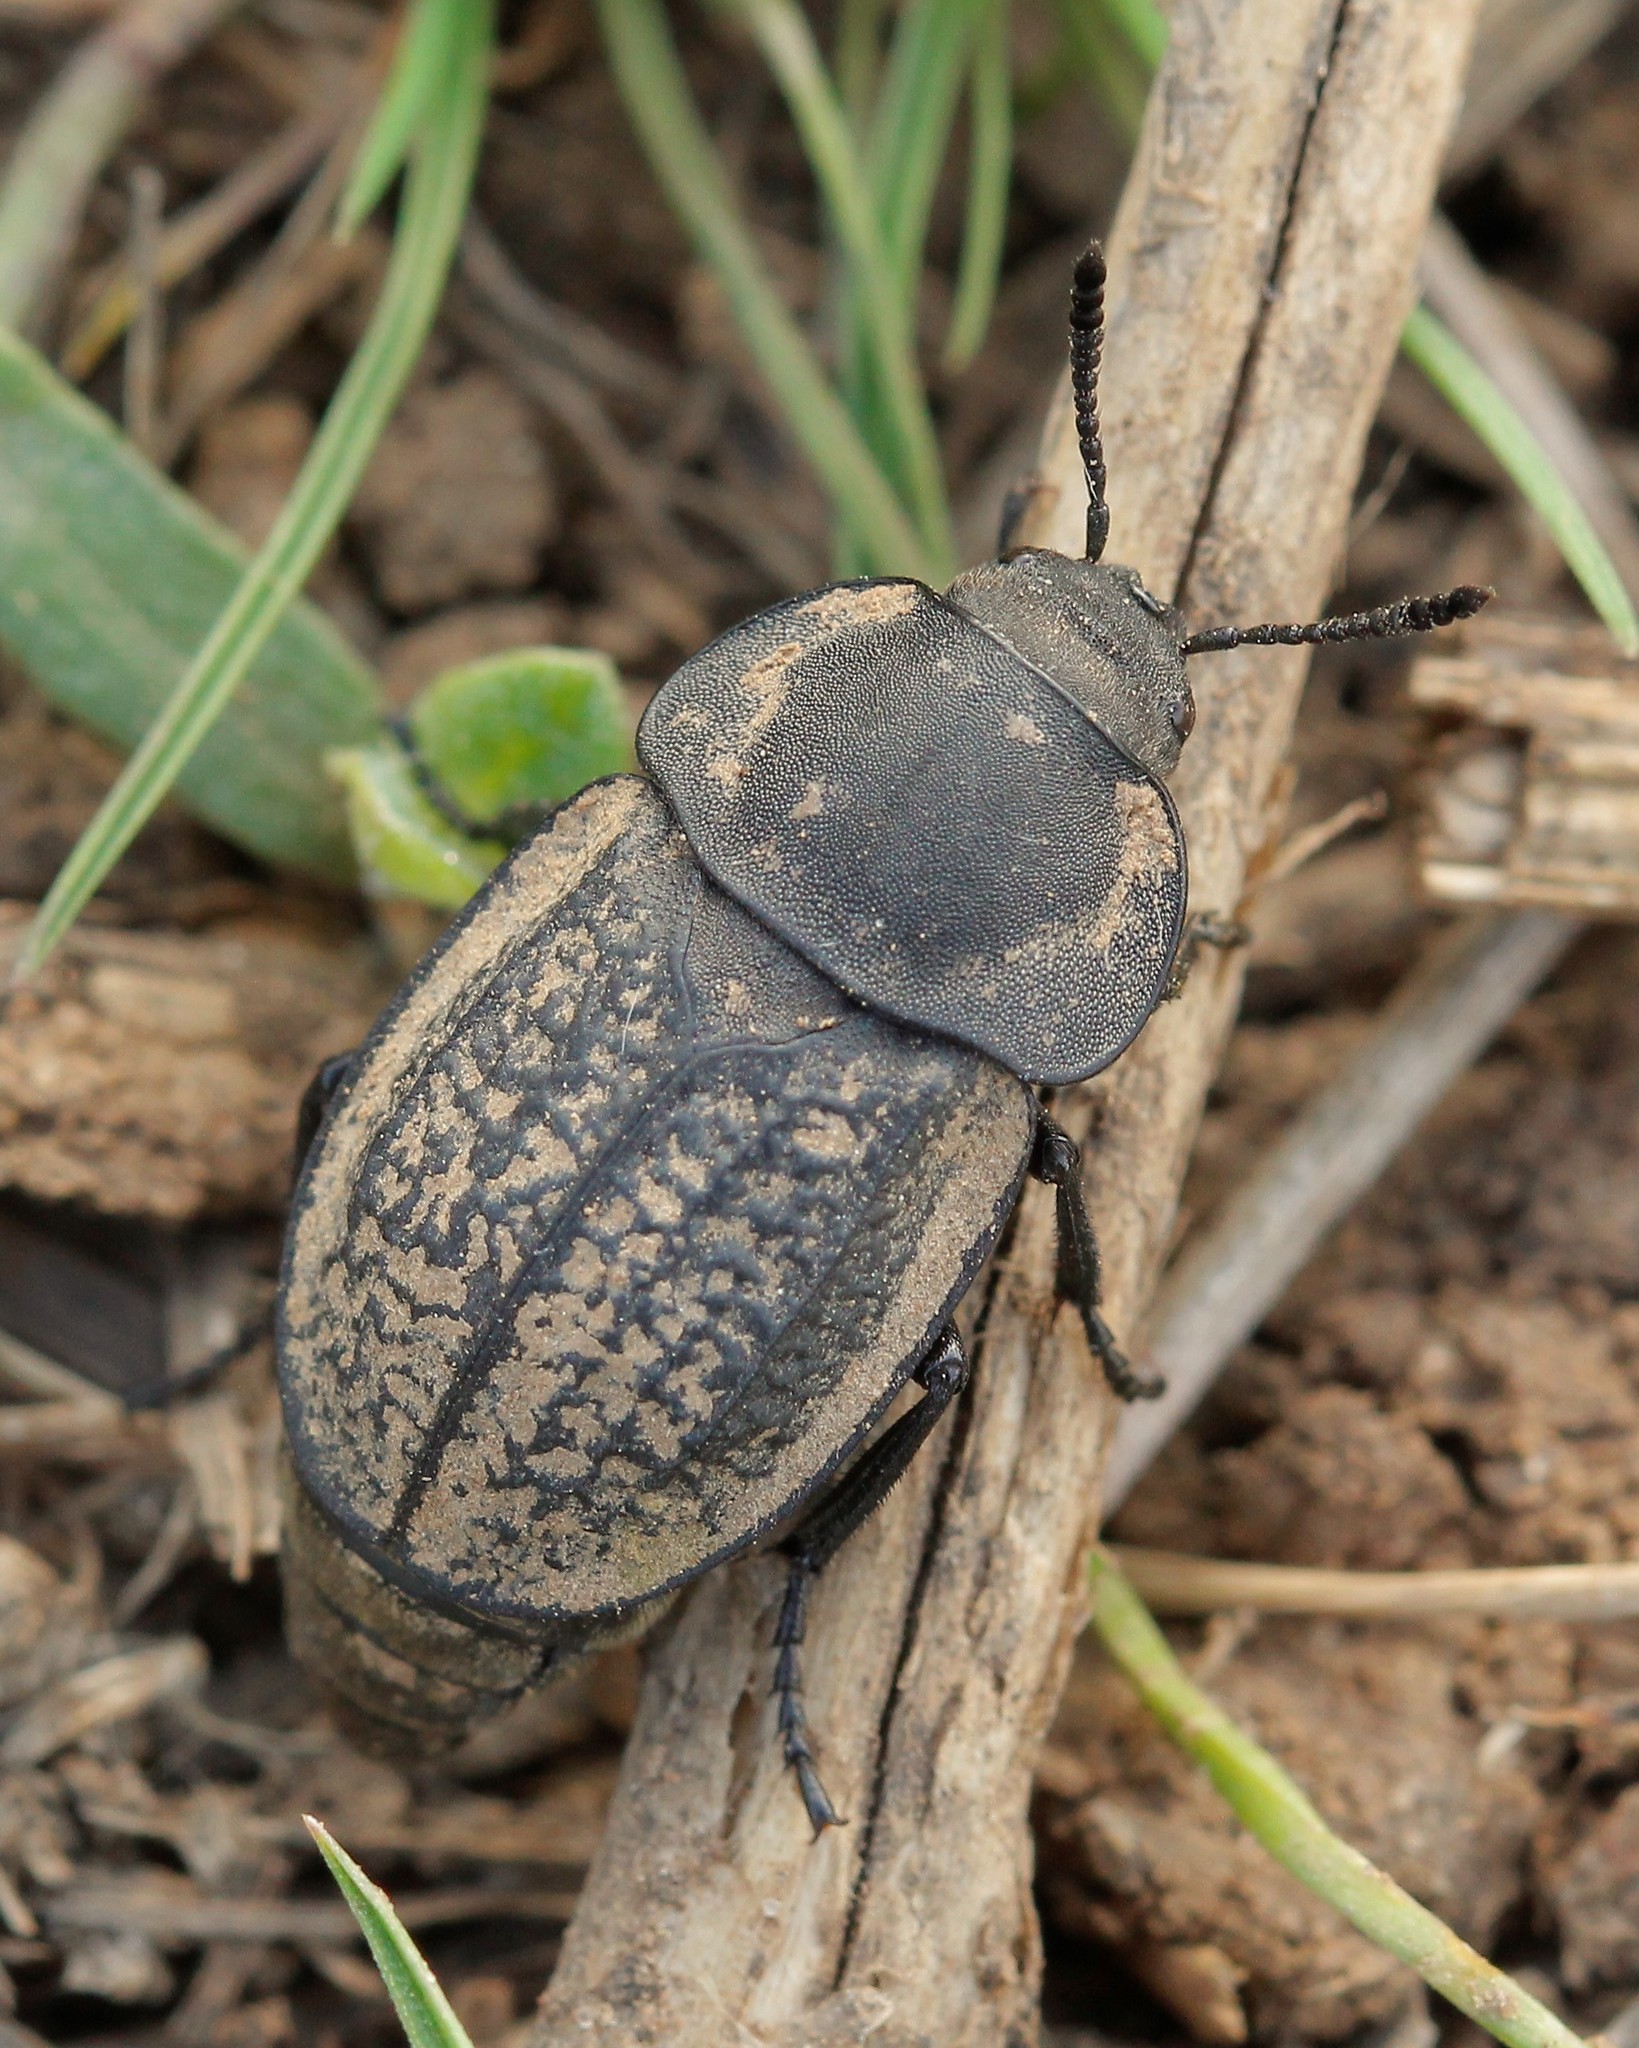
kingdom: Animalia
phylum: Arthropoda
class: Insecta
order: Coleoptera
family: Staphylinidae
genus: Aclypea
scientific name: Aclypea undata
